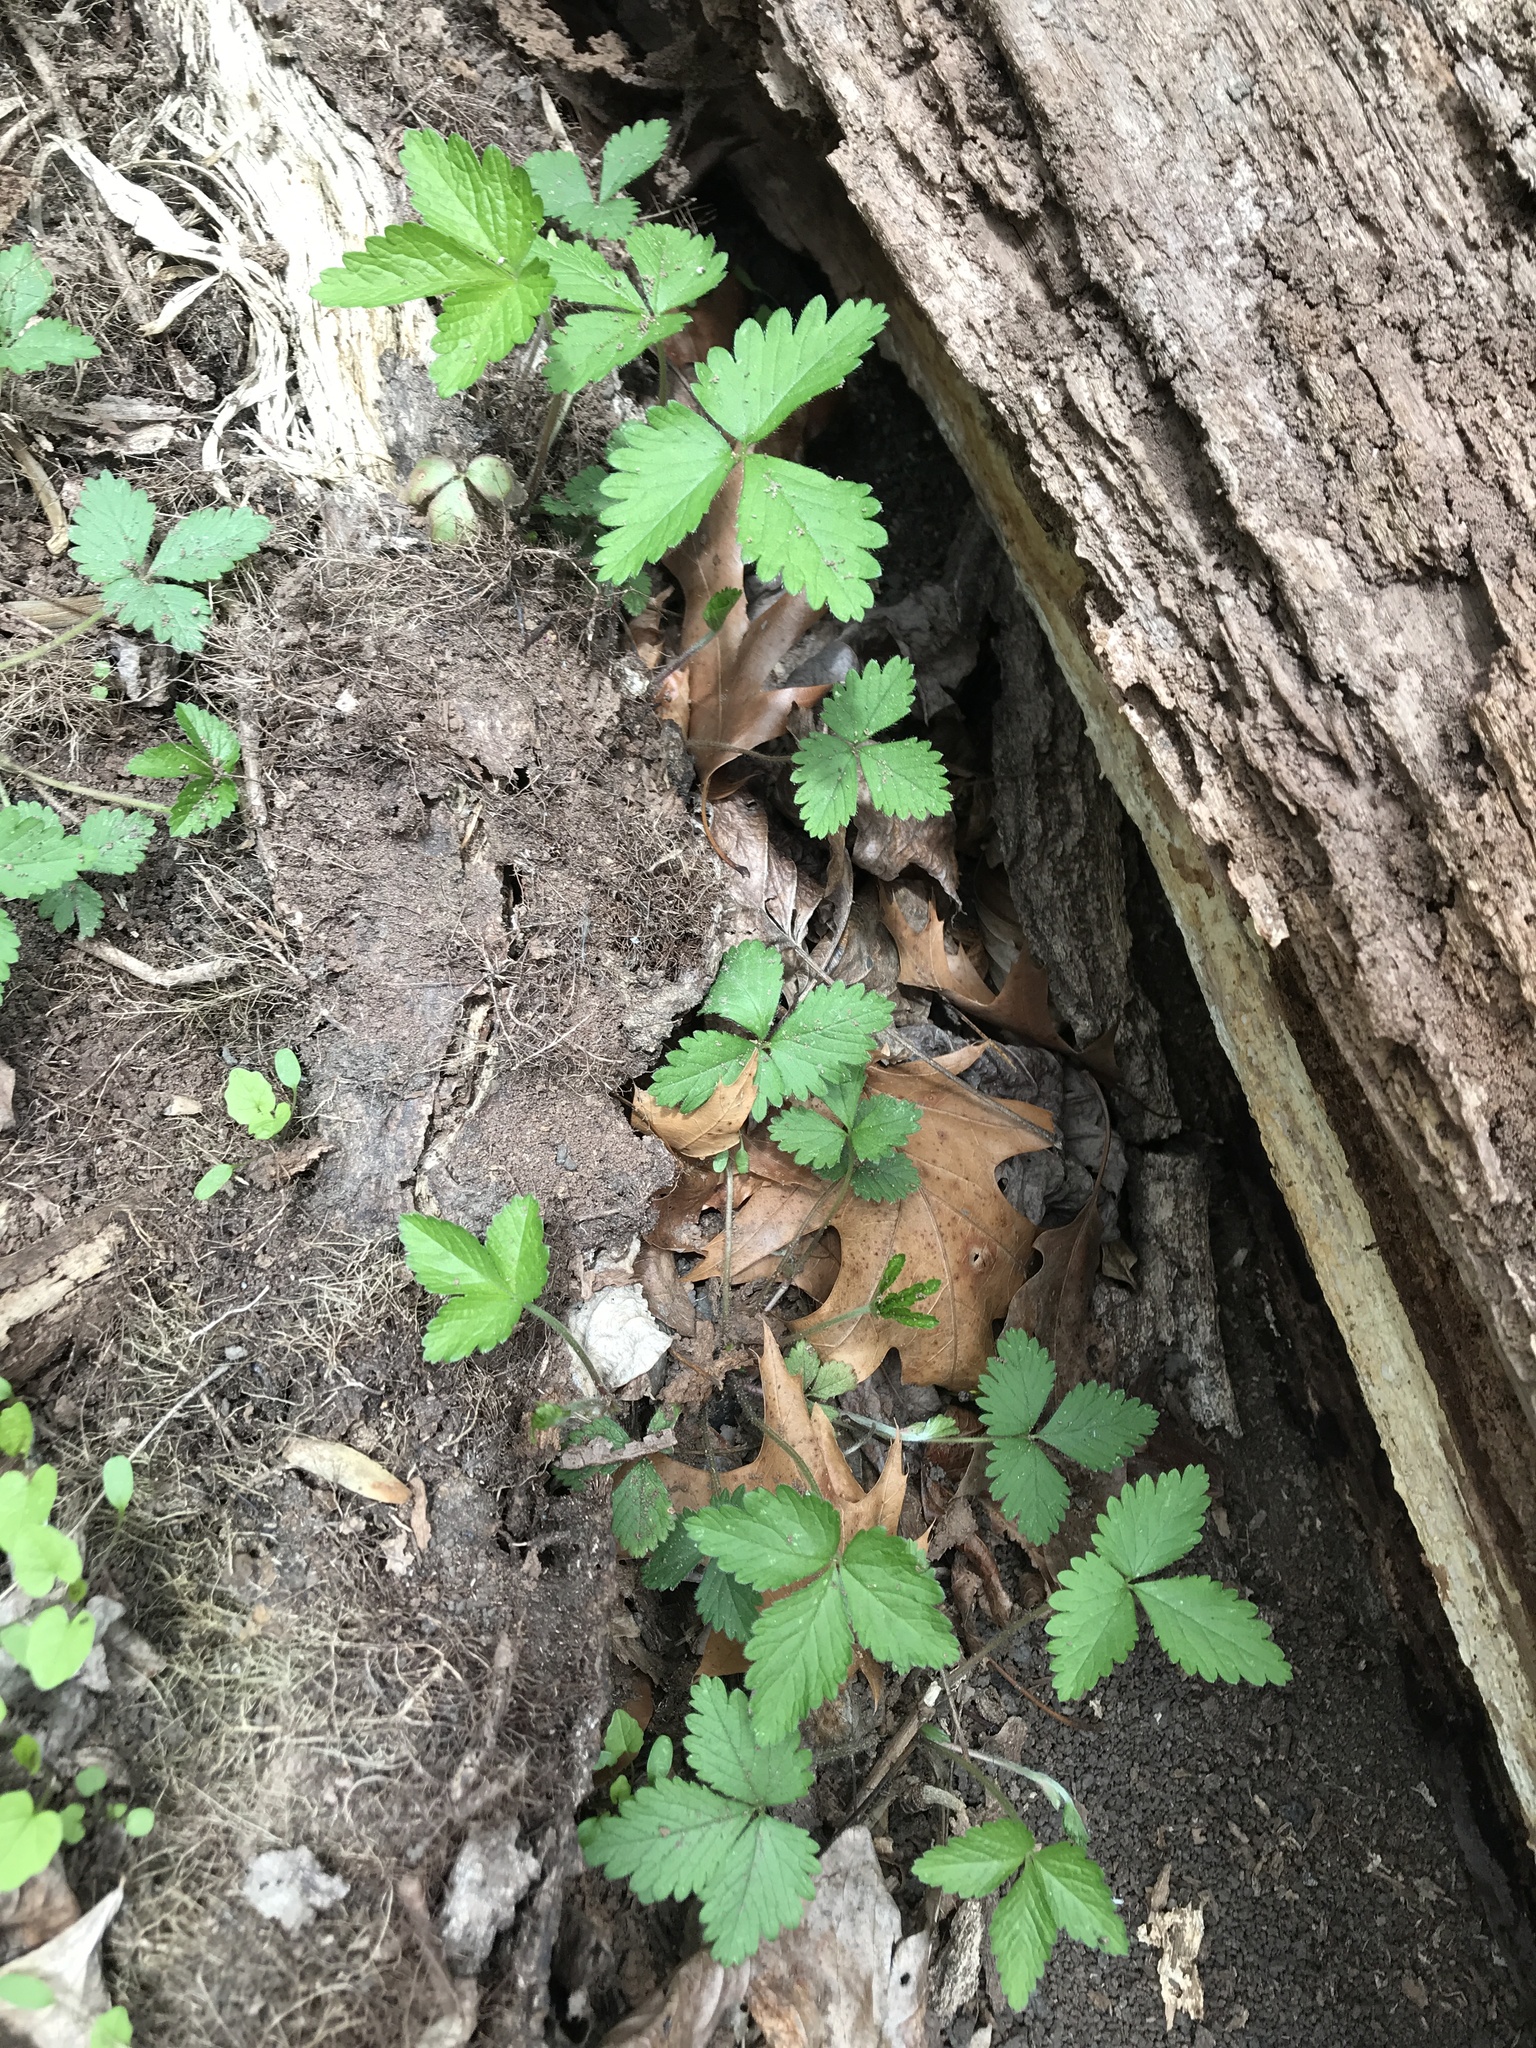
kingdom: Plantae
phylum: Tracheophyta
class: Magnoliopsida
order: Rosales
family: Rosaceae
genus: Potentilla
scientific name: Potentilla indica
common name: Yellow-flowered strawberry
